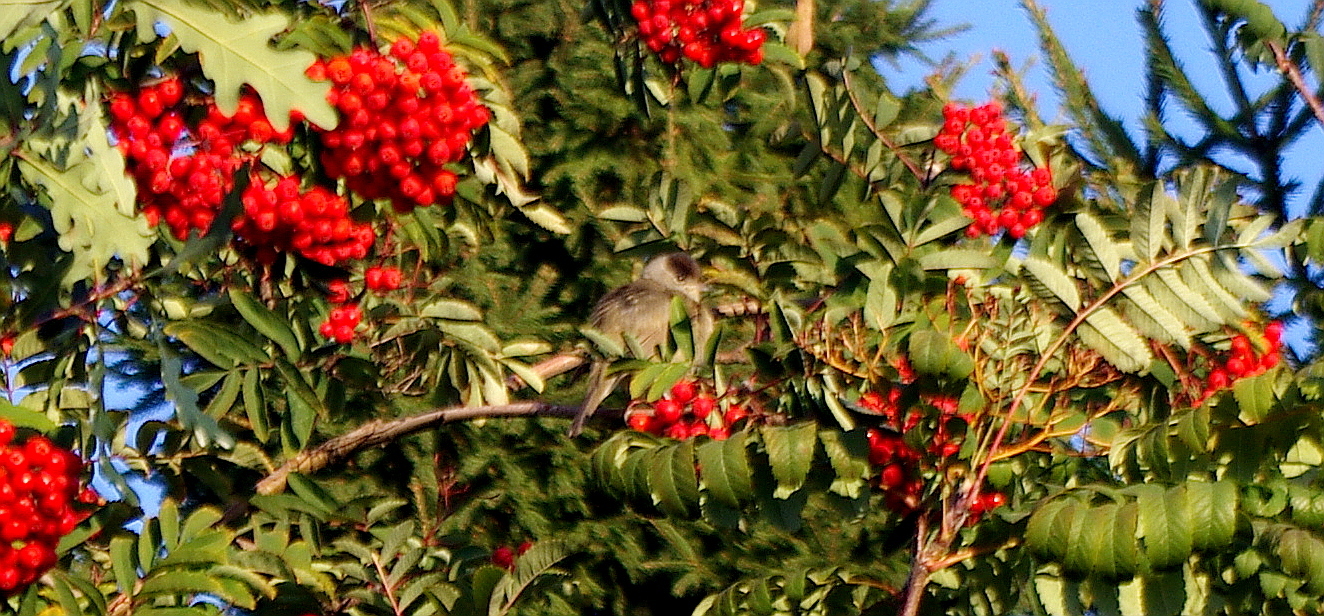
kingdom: Animalia
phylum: Chordata
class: Aves
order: Passeriformes
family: Sylviidae
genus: Sylvia
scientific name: Sylvia atricapilla
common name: Eurasian blackcap
